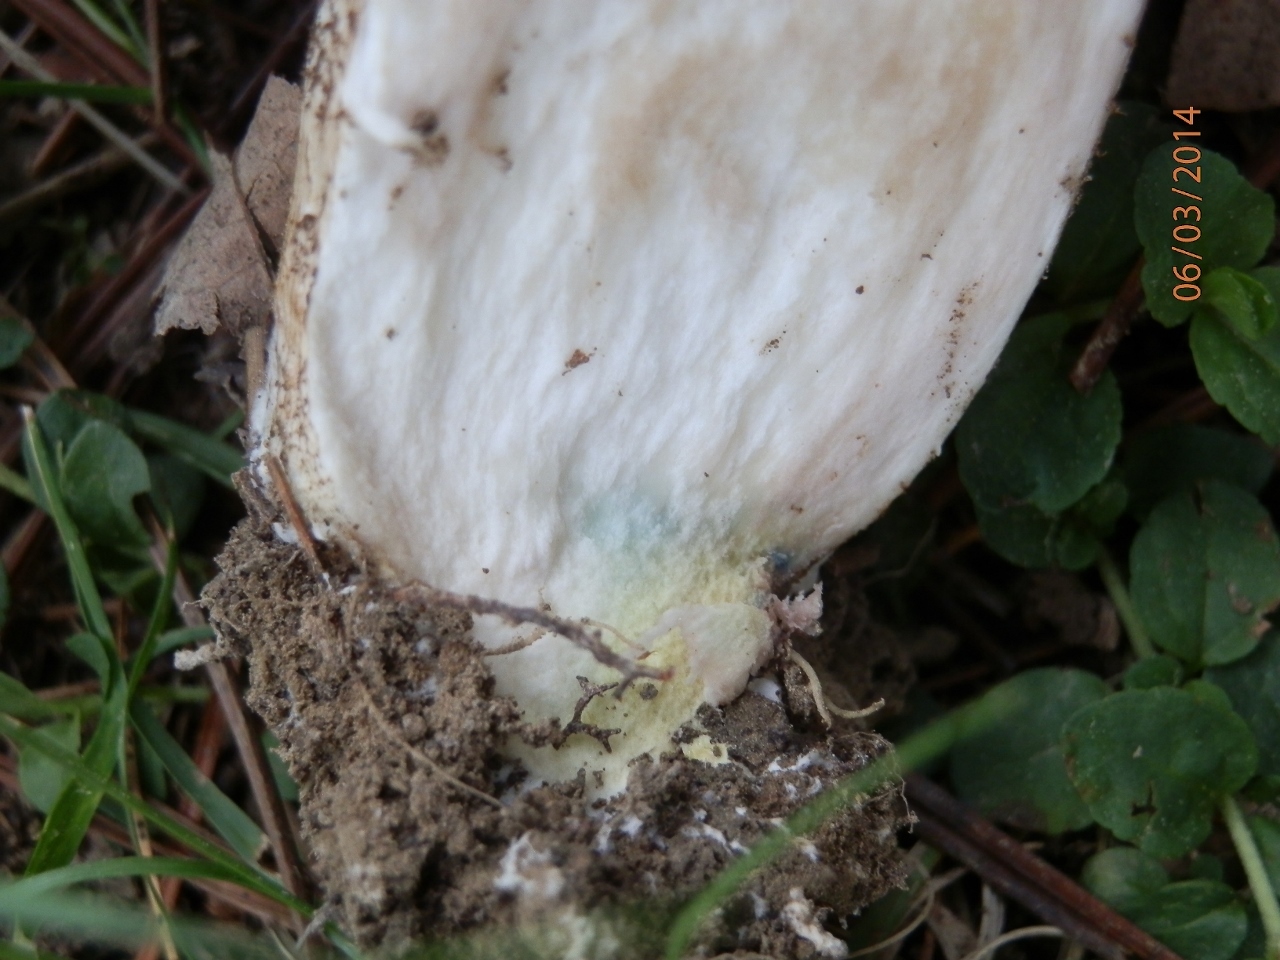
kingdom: Fungi
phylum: Basidiomycota
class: Agaricomycetes
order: Boletales
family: Boletaceae
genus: Leccinum
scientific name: Leccinum aurantiacum
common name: Orange bolete
